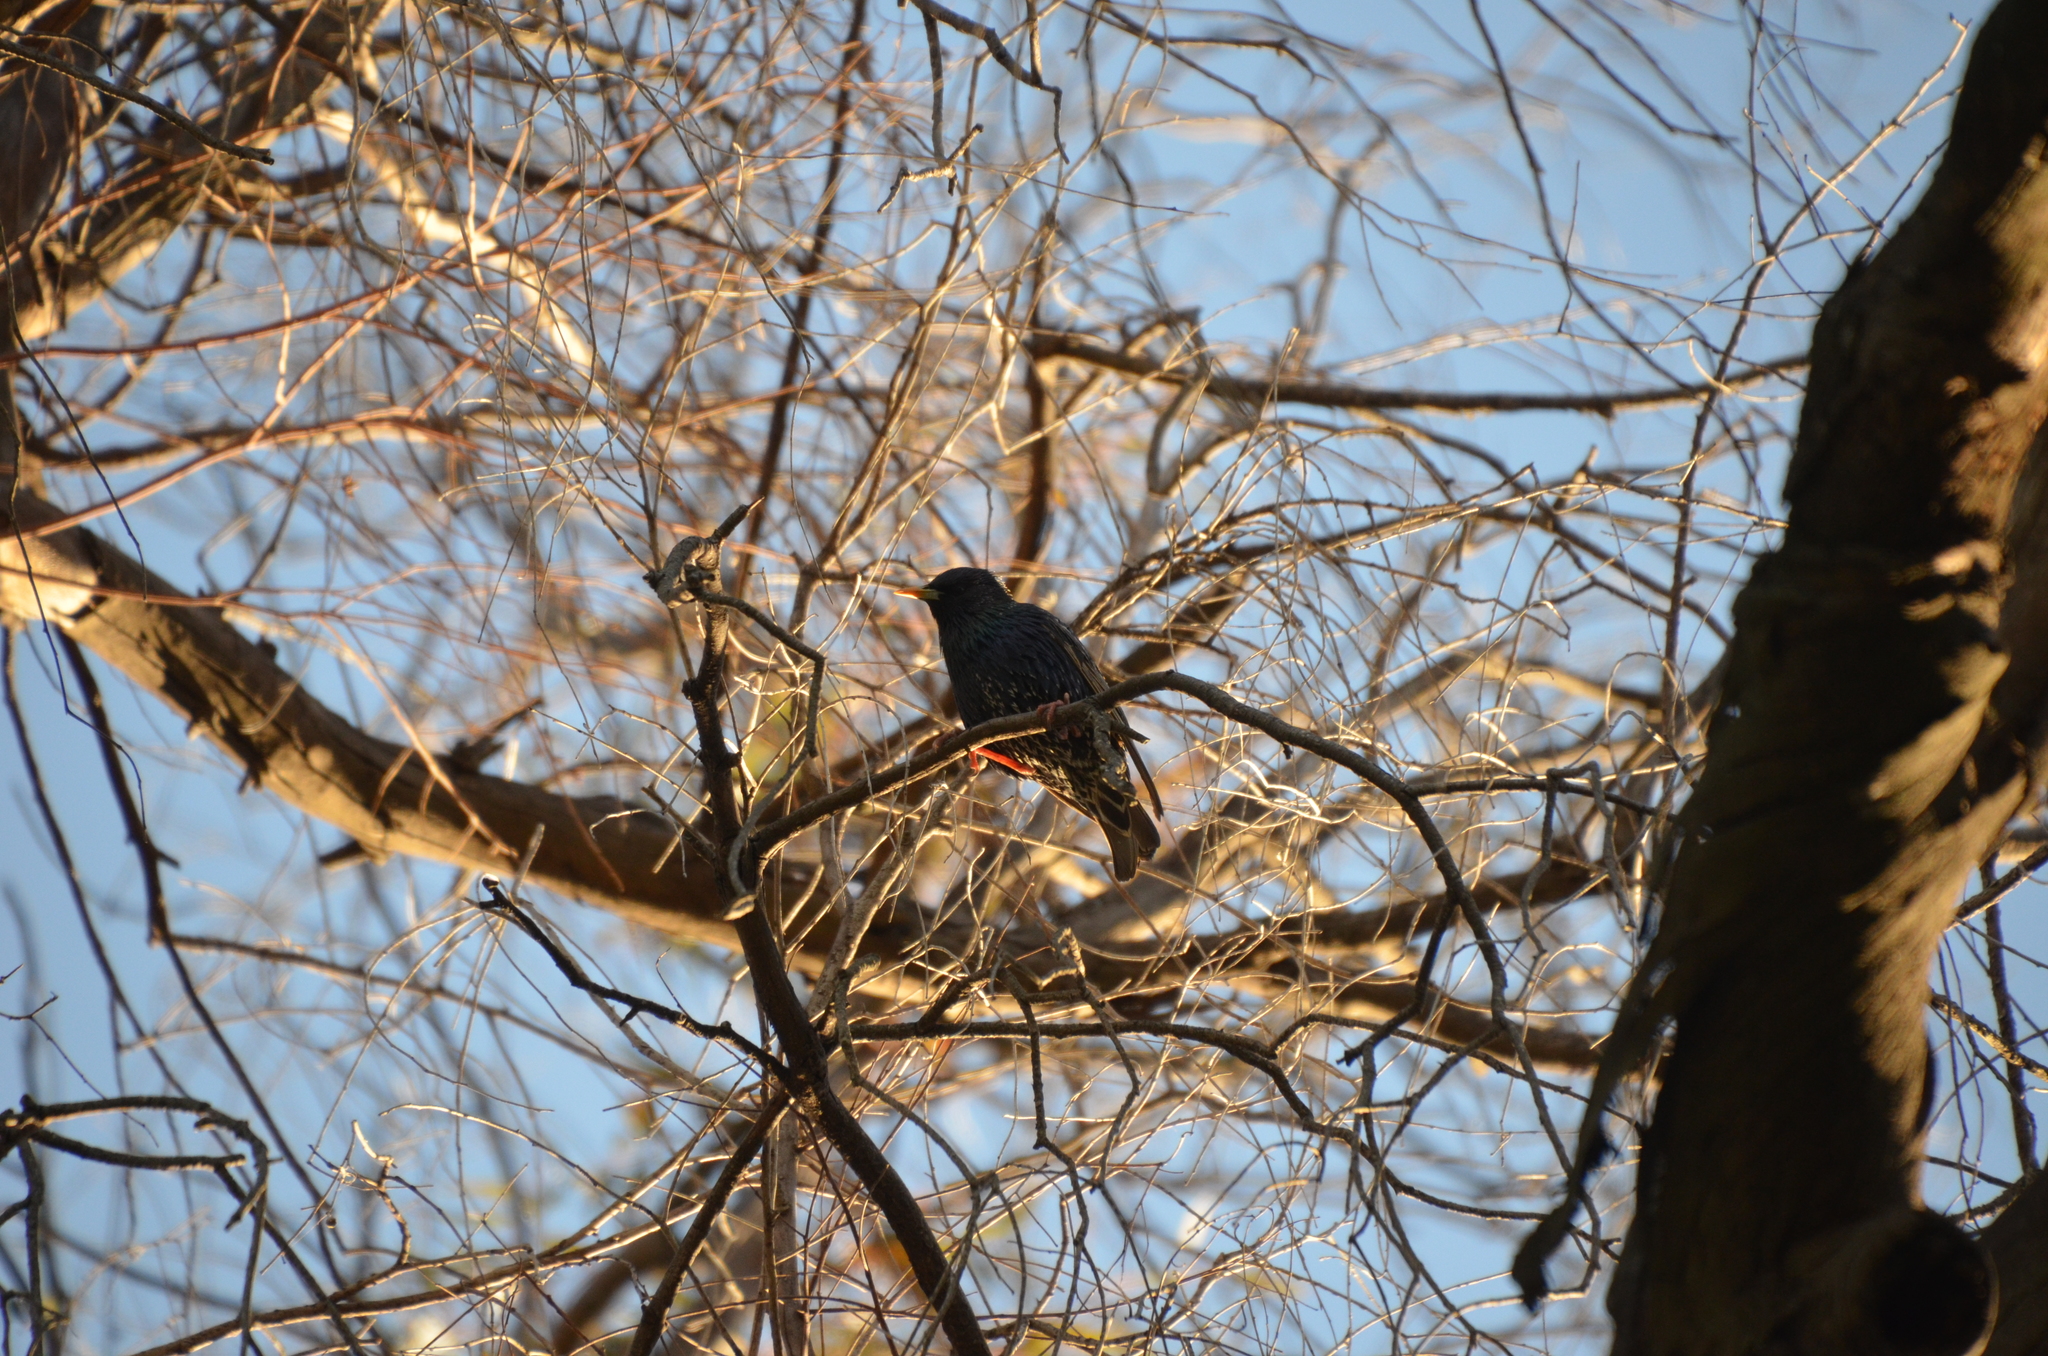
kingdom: Animalia
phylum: Chordata
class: Aves
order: Passeriformes
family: Sturnidae
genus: Sturnus
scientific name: Sturnus vulgaris
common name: Common starling
